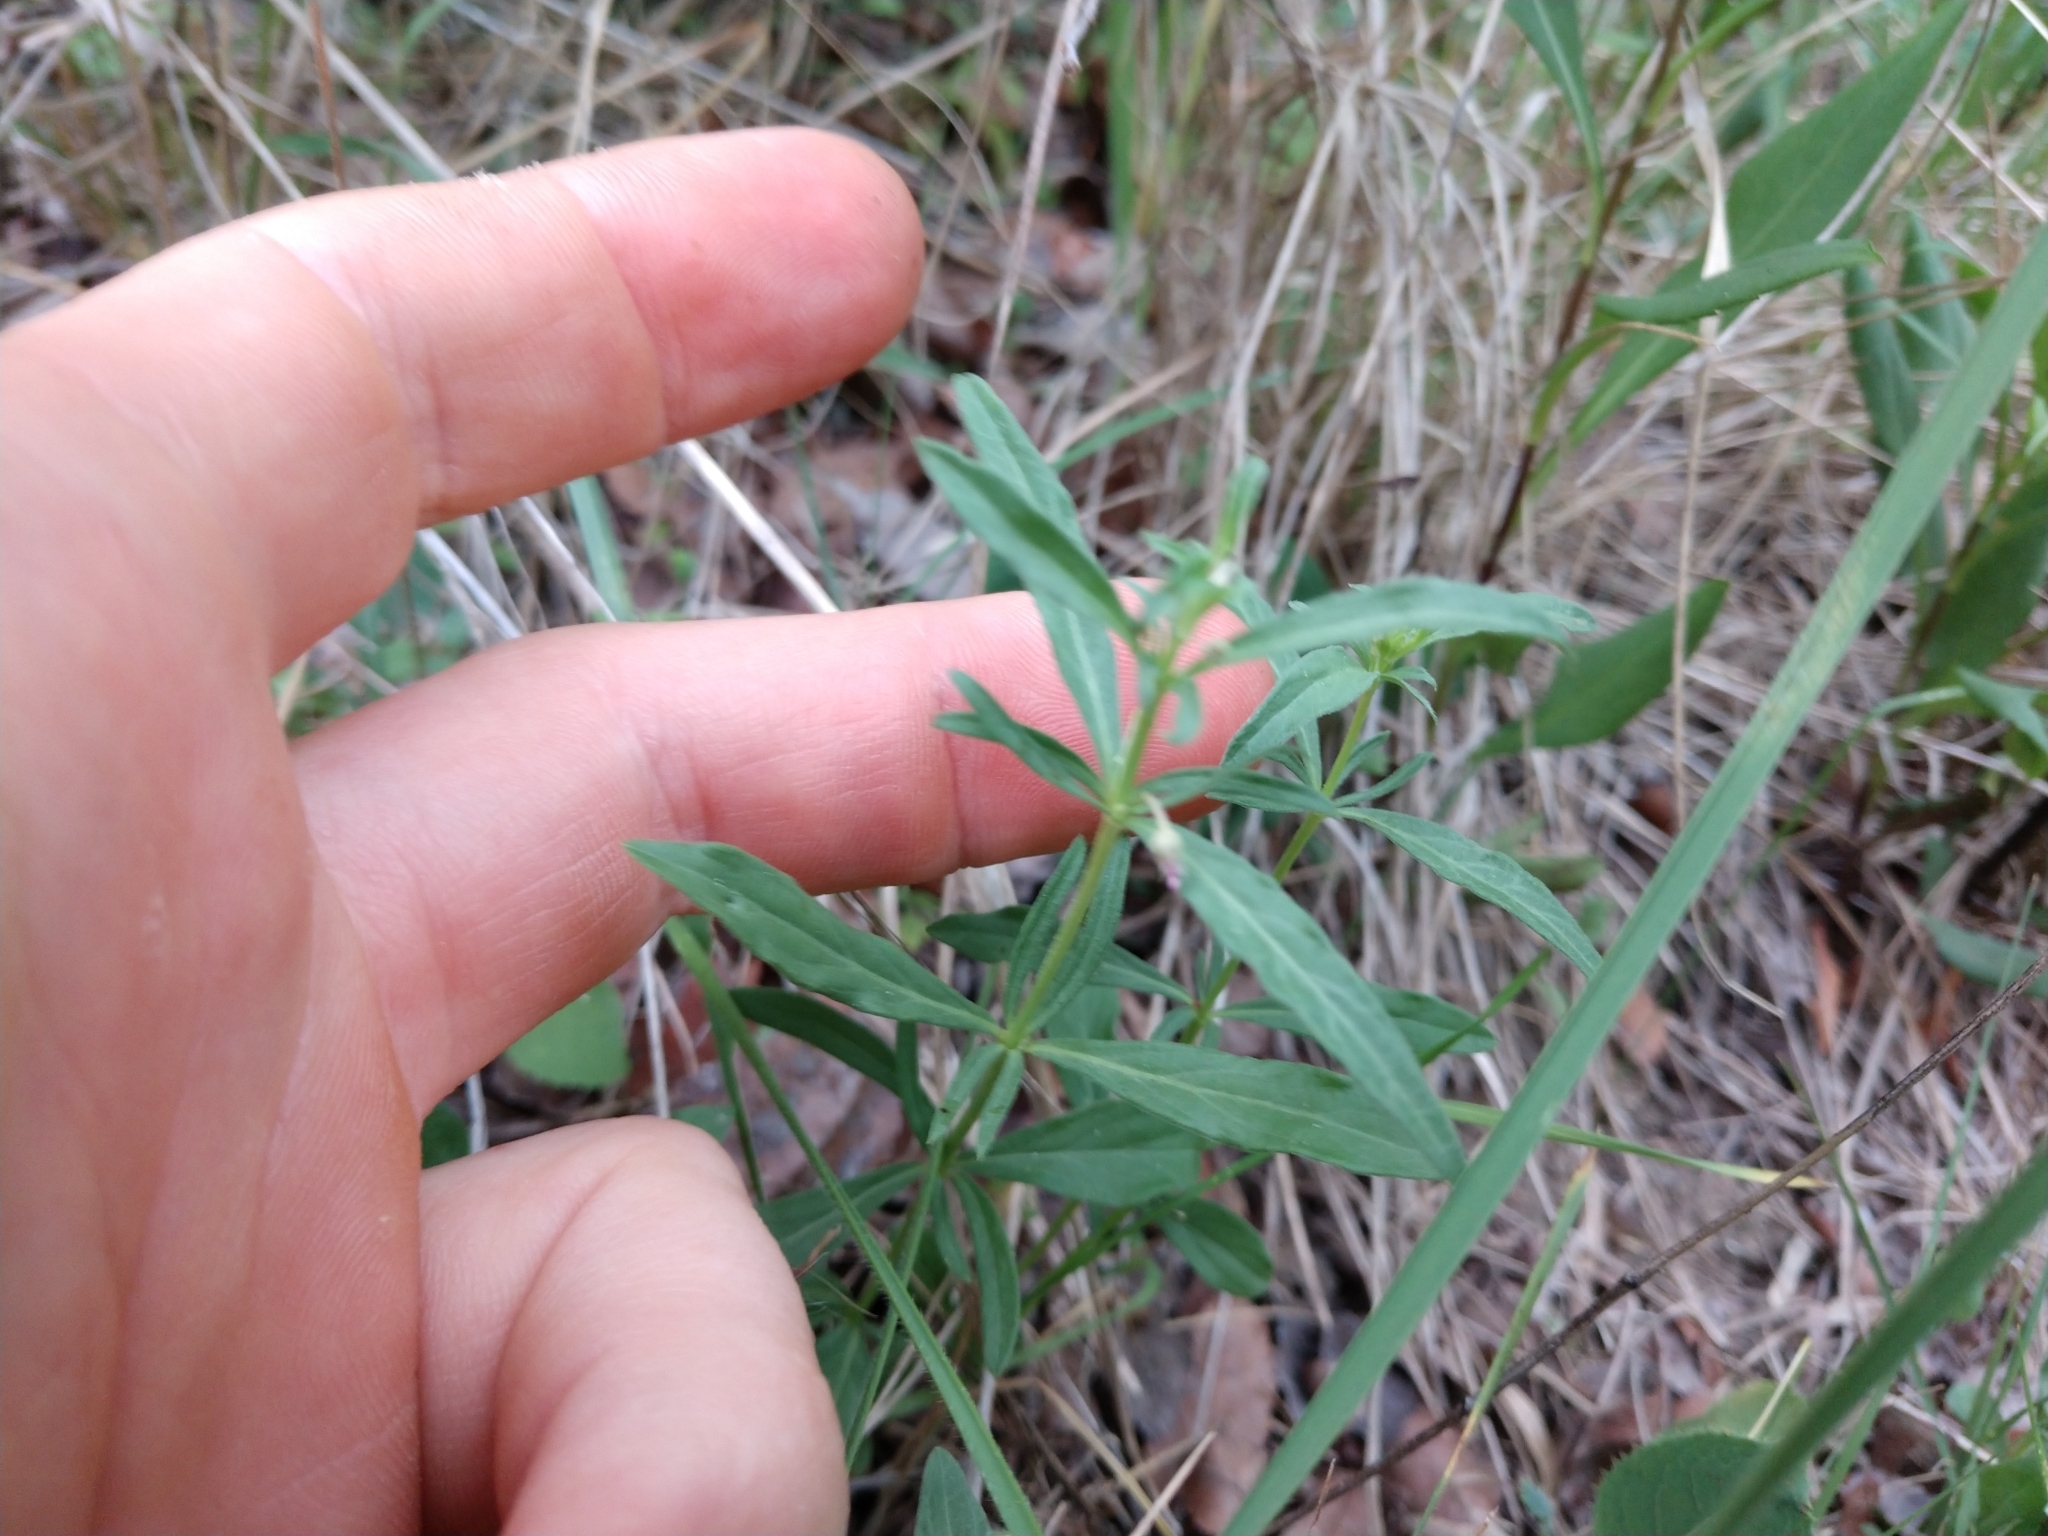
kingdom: Plantae
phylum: Tracheophyta
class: Magnoliopsida
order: Malpighiales
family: Violaceae
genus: Pombalia
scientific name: Pombalia verticillata
